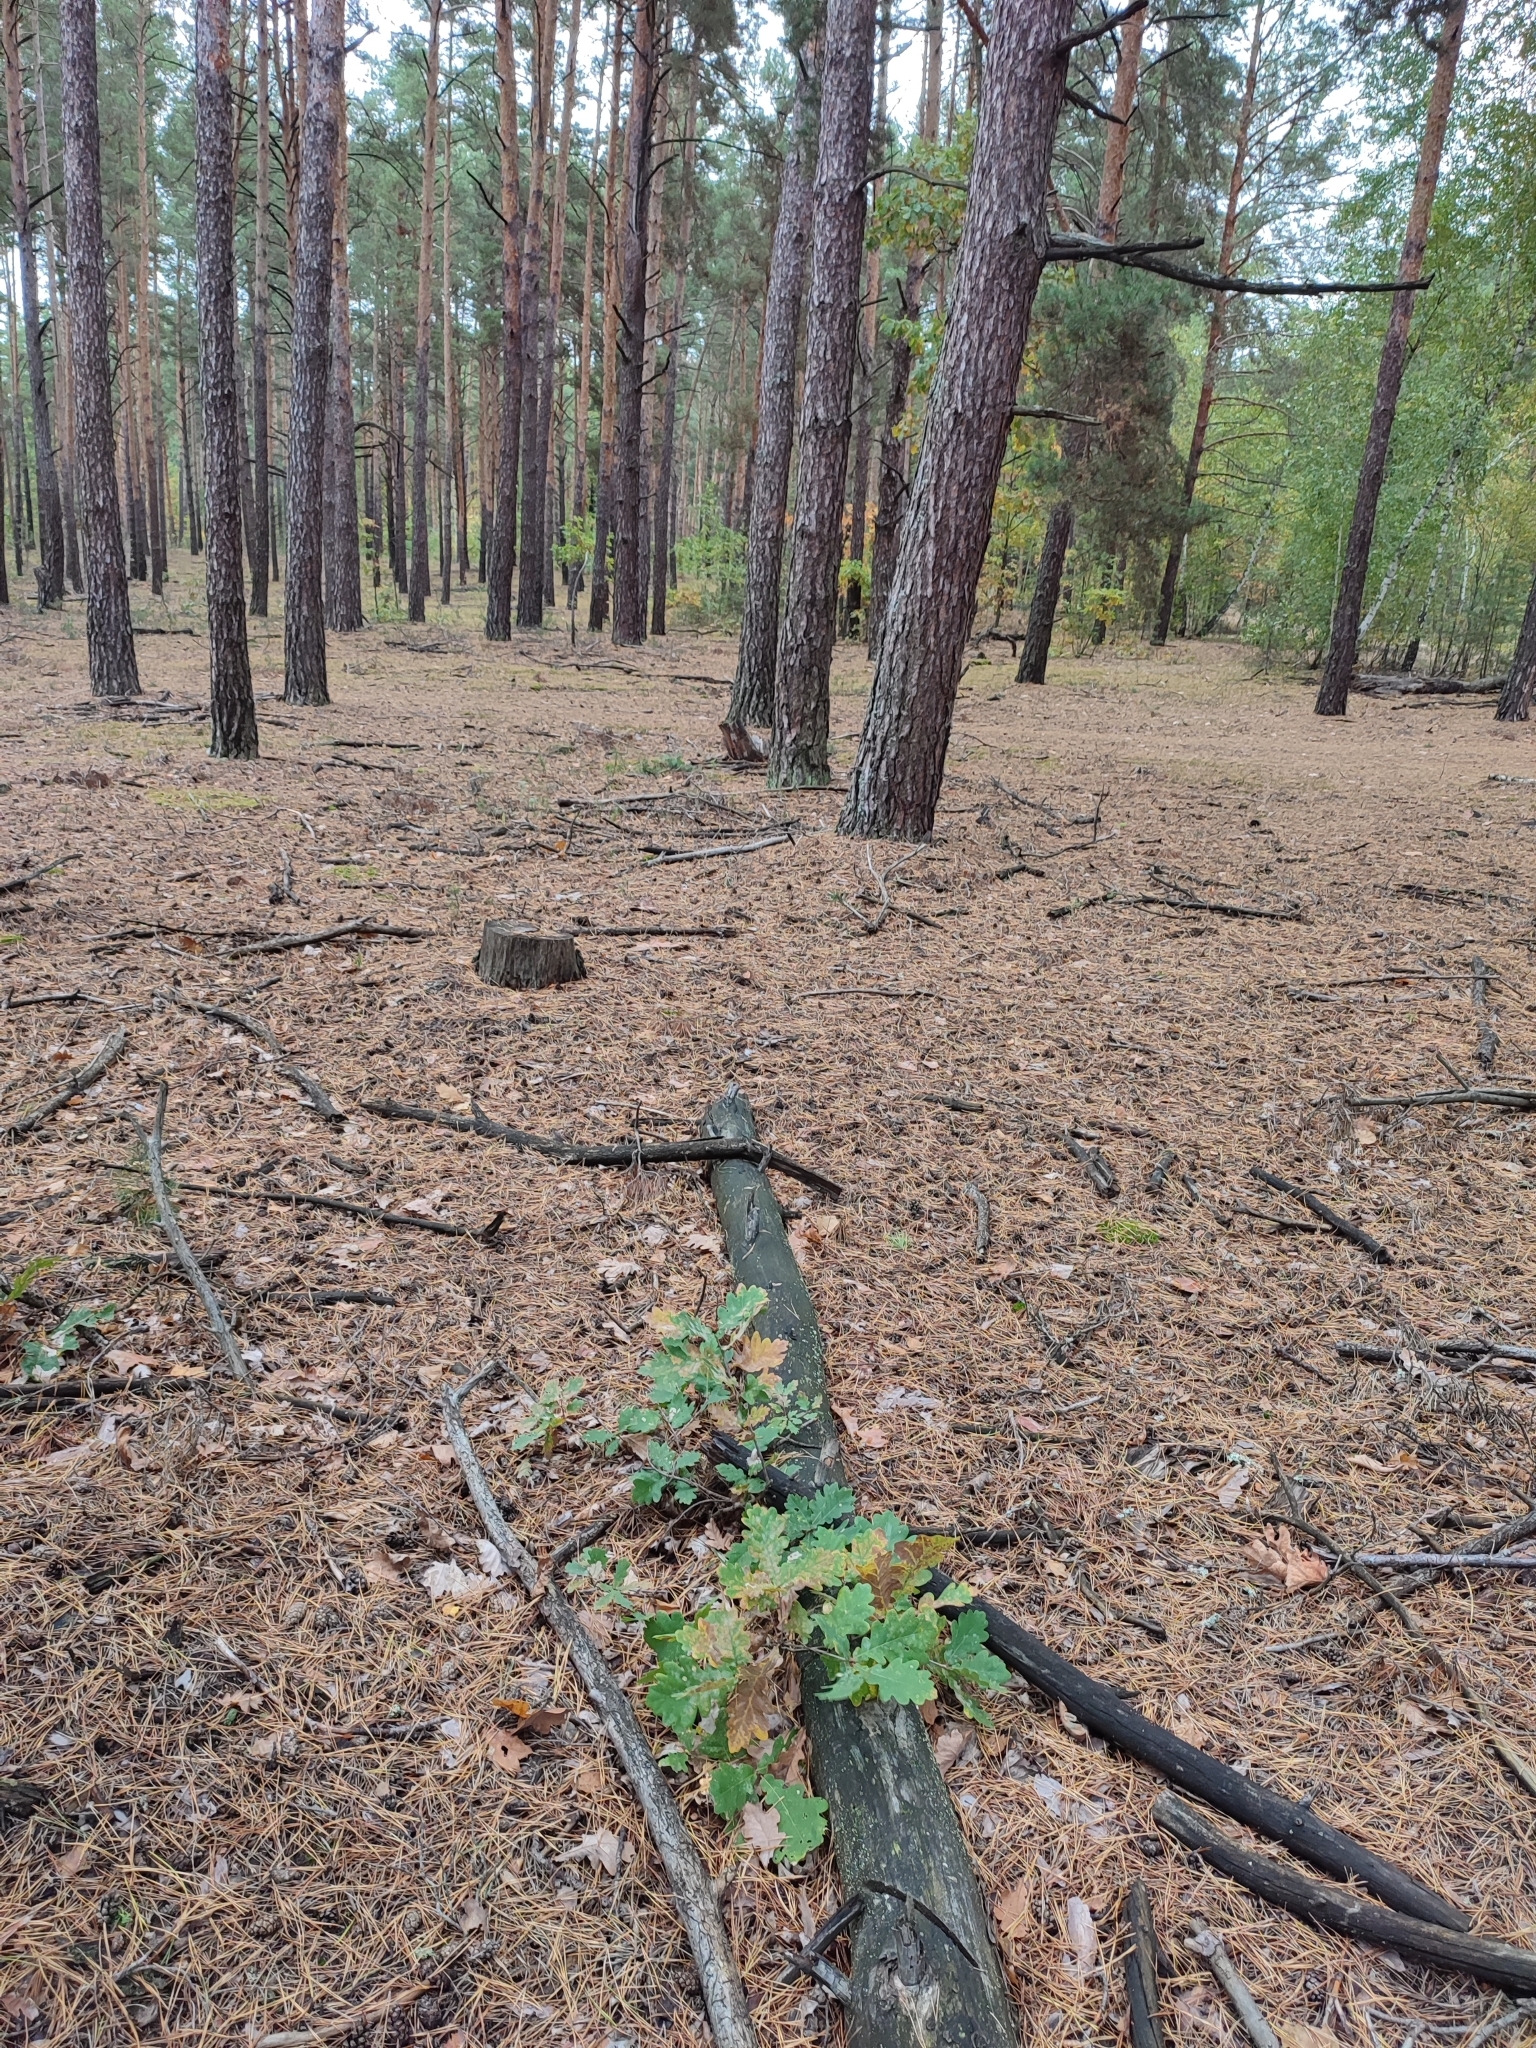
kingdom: Plantae
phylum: Tracheophyta
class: Magnoliopsida
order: Fagales
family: Fagaceae
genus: Quercus
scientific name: Quercus robur
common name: Pedunculate oak
